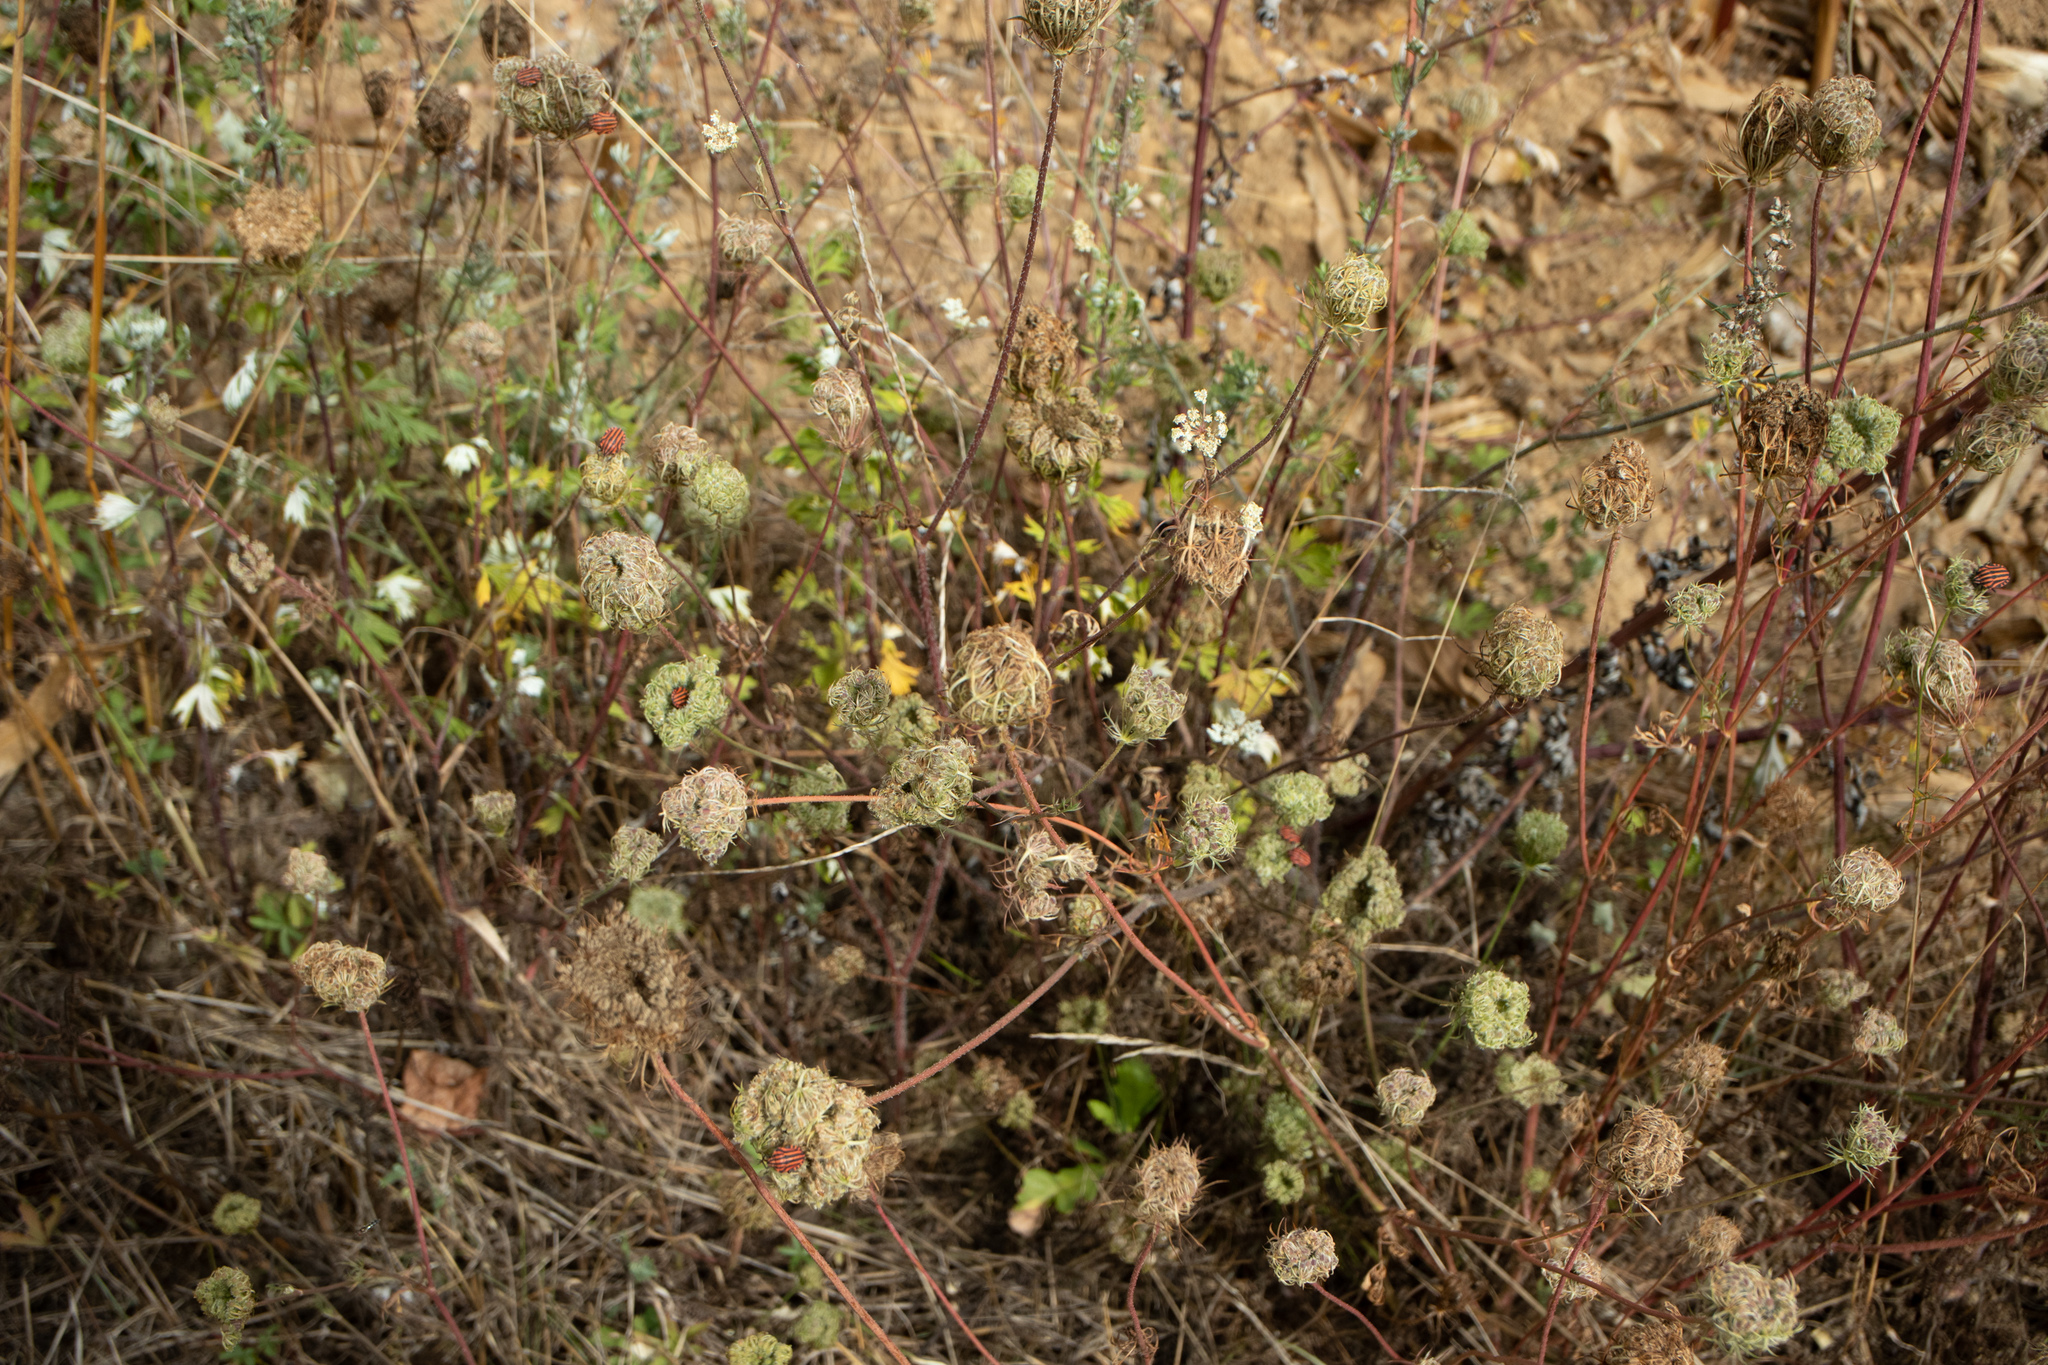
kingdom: Plantae
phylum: Tracheophyta
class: Magnoliopsida
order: Apiales
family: Apiaceae
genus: Daucus
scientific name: Daucus carota
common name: Wild carrot
